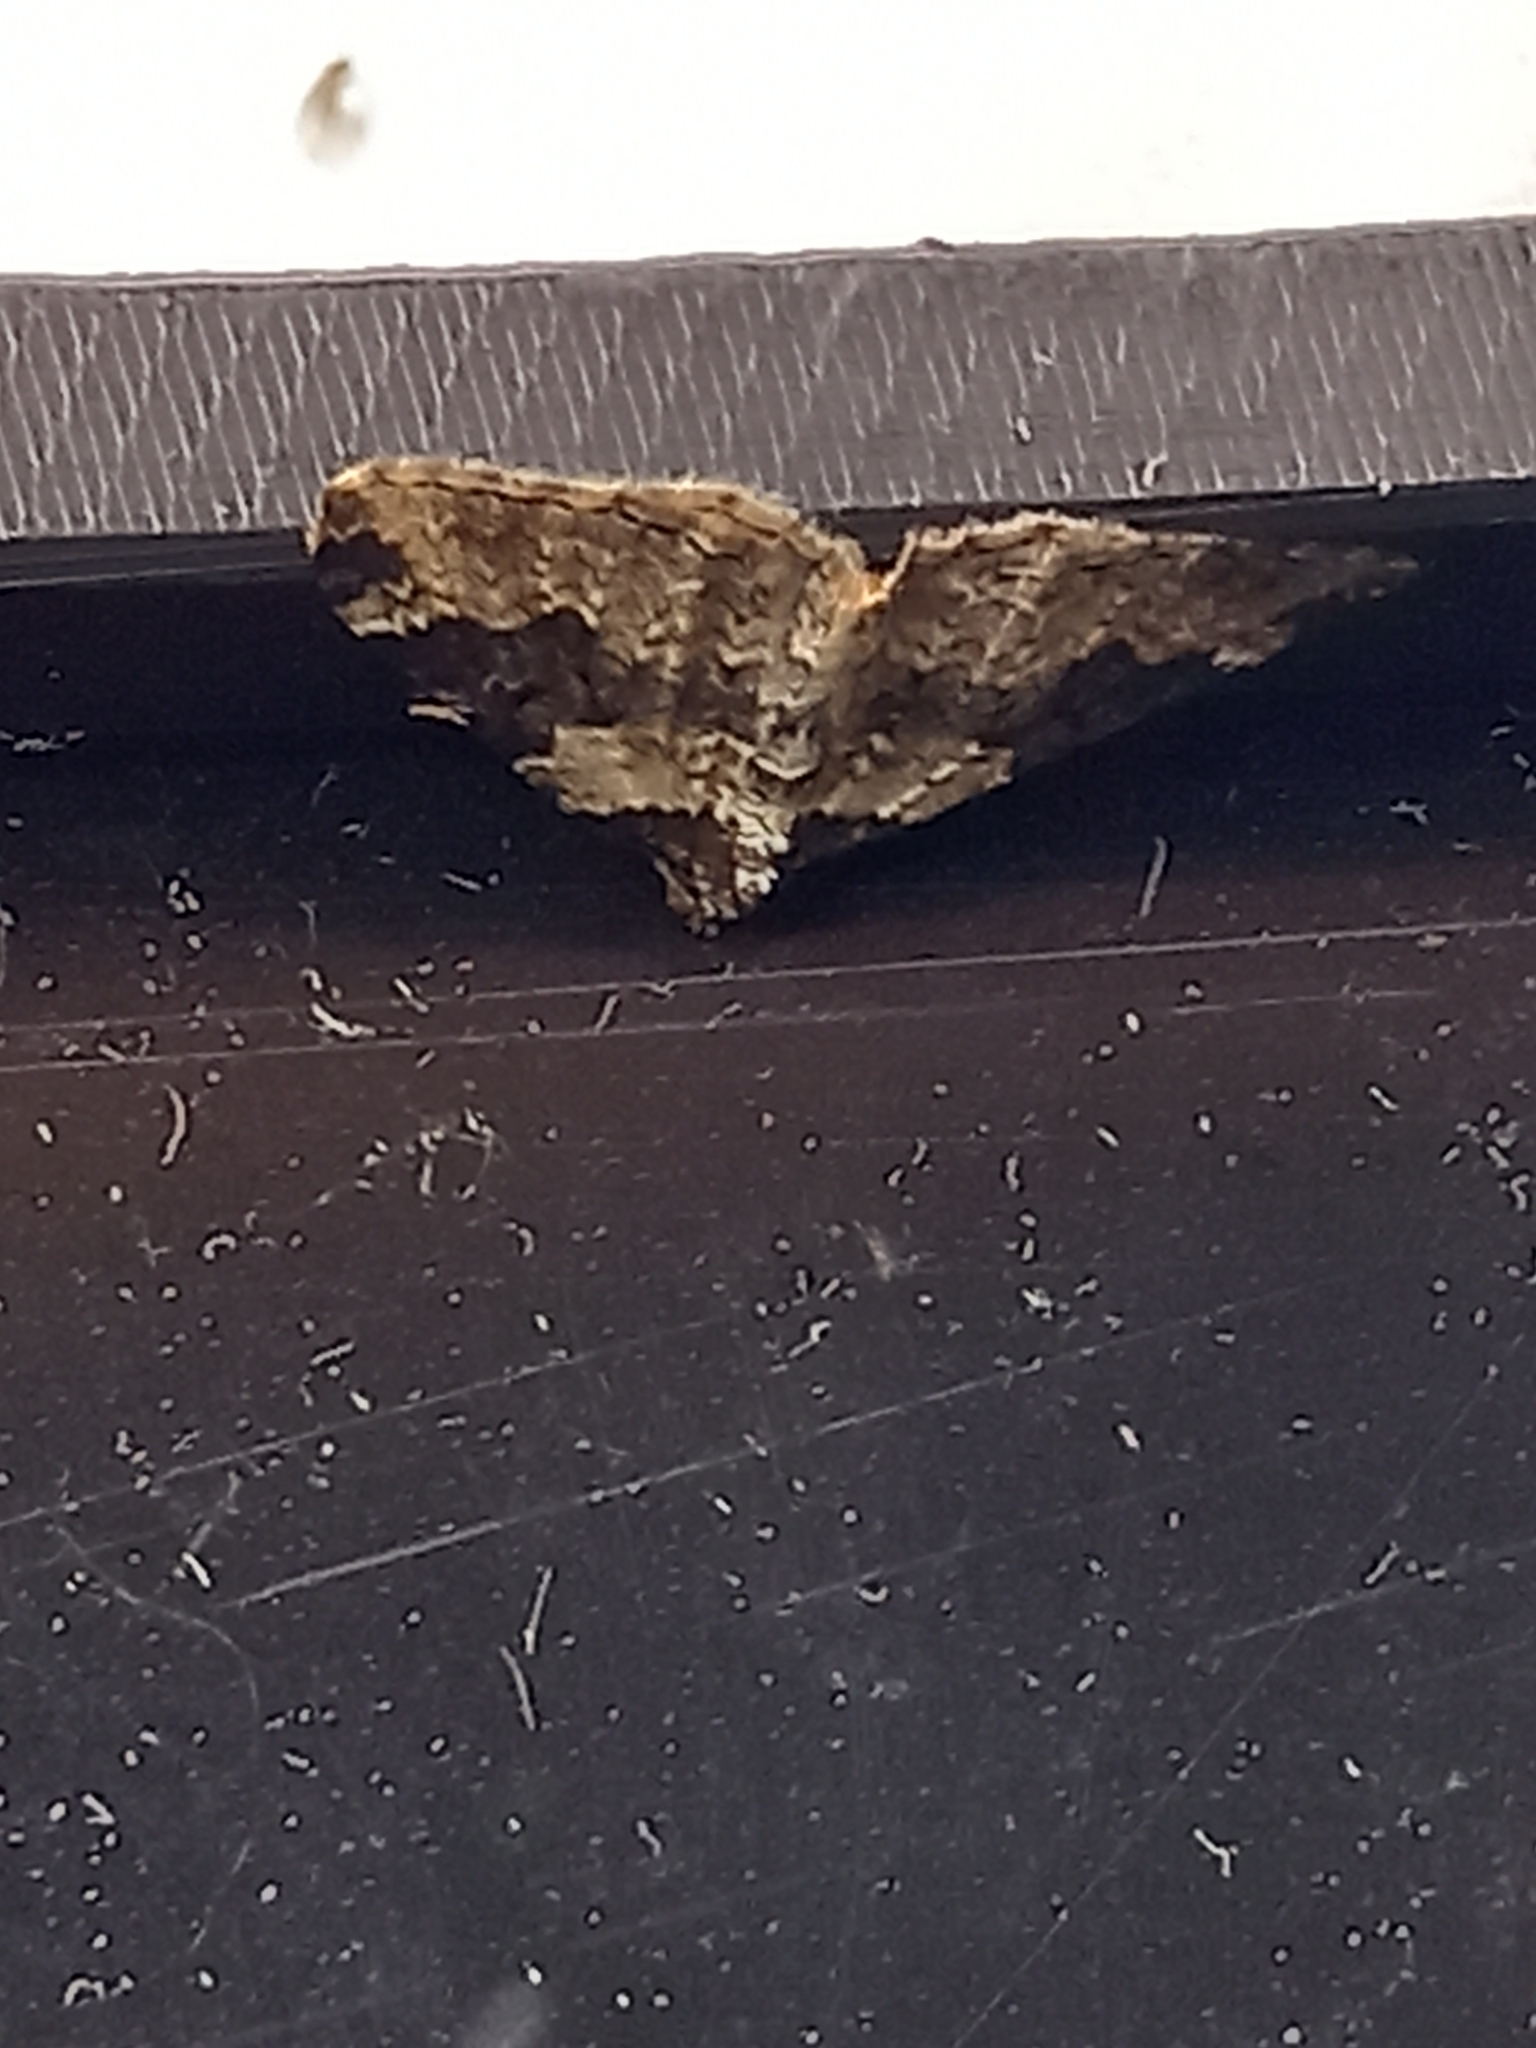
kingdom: Animalia
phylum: Arthropoda
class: Insecta
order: Lepidoptera
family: Geometridae
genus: Xanthorhoe
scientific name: Xanthorhoe fluctuata
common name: Garden carpet
